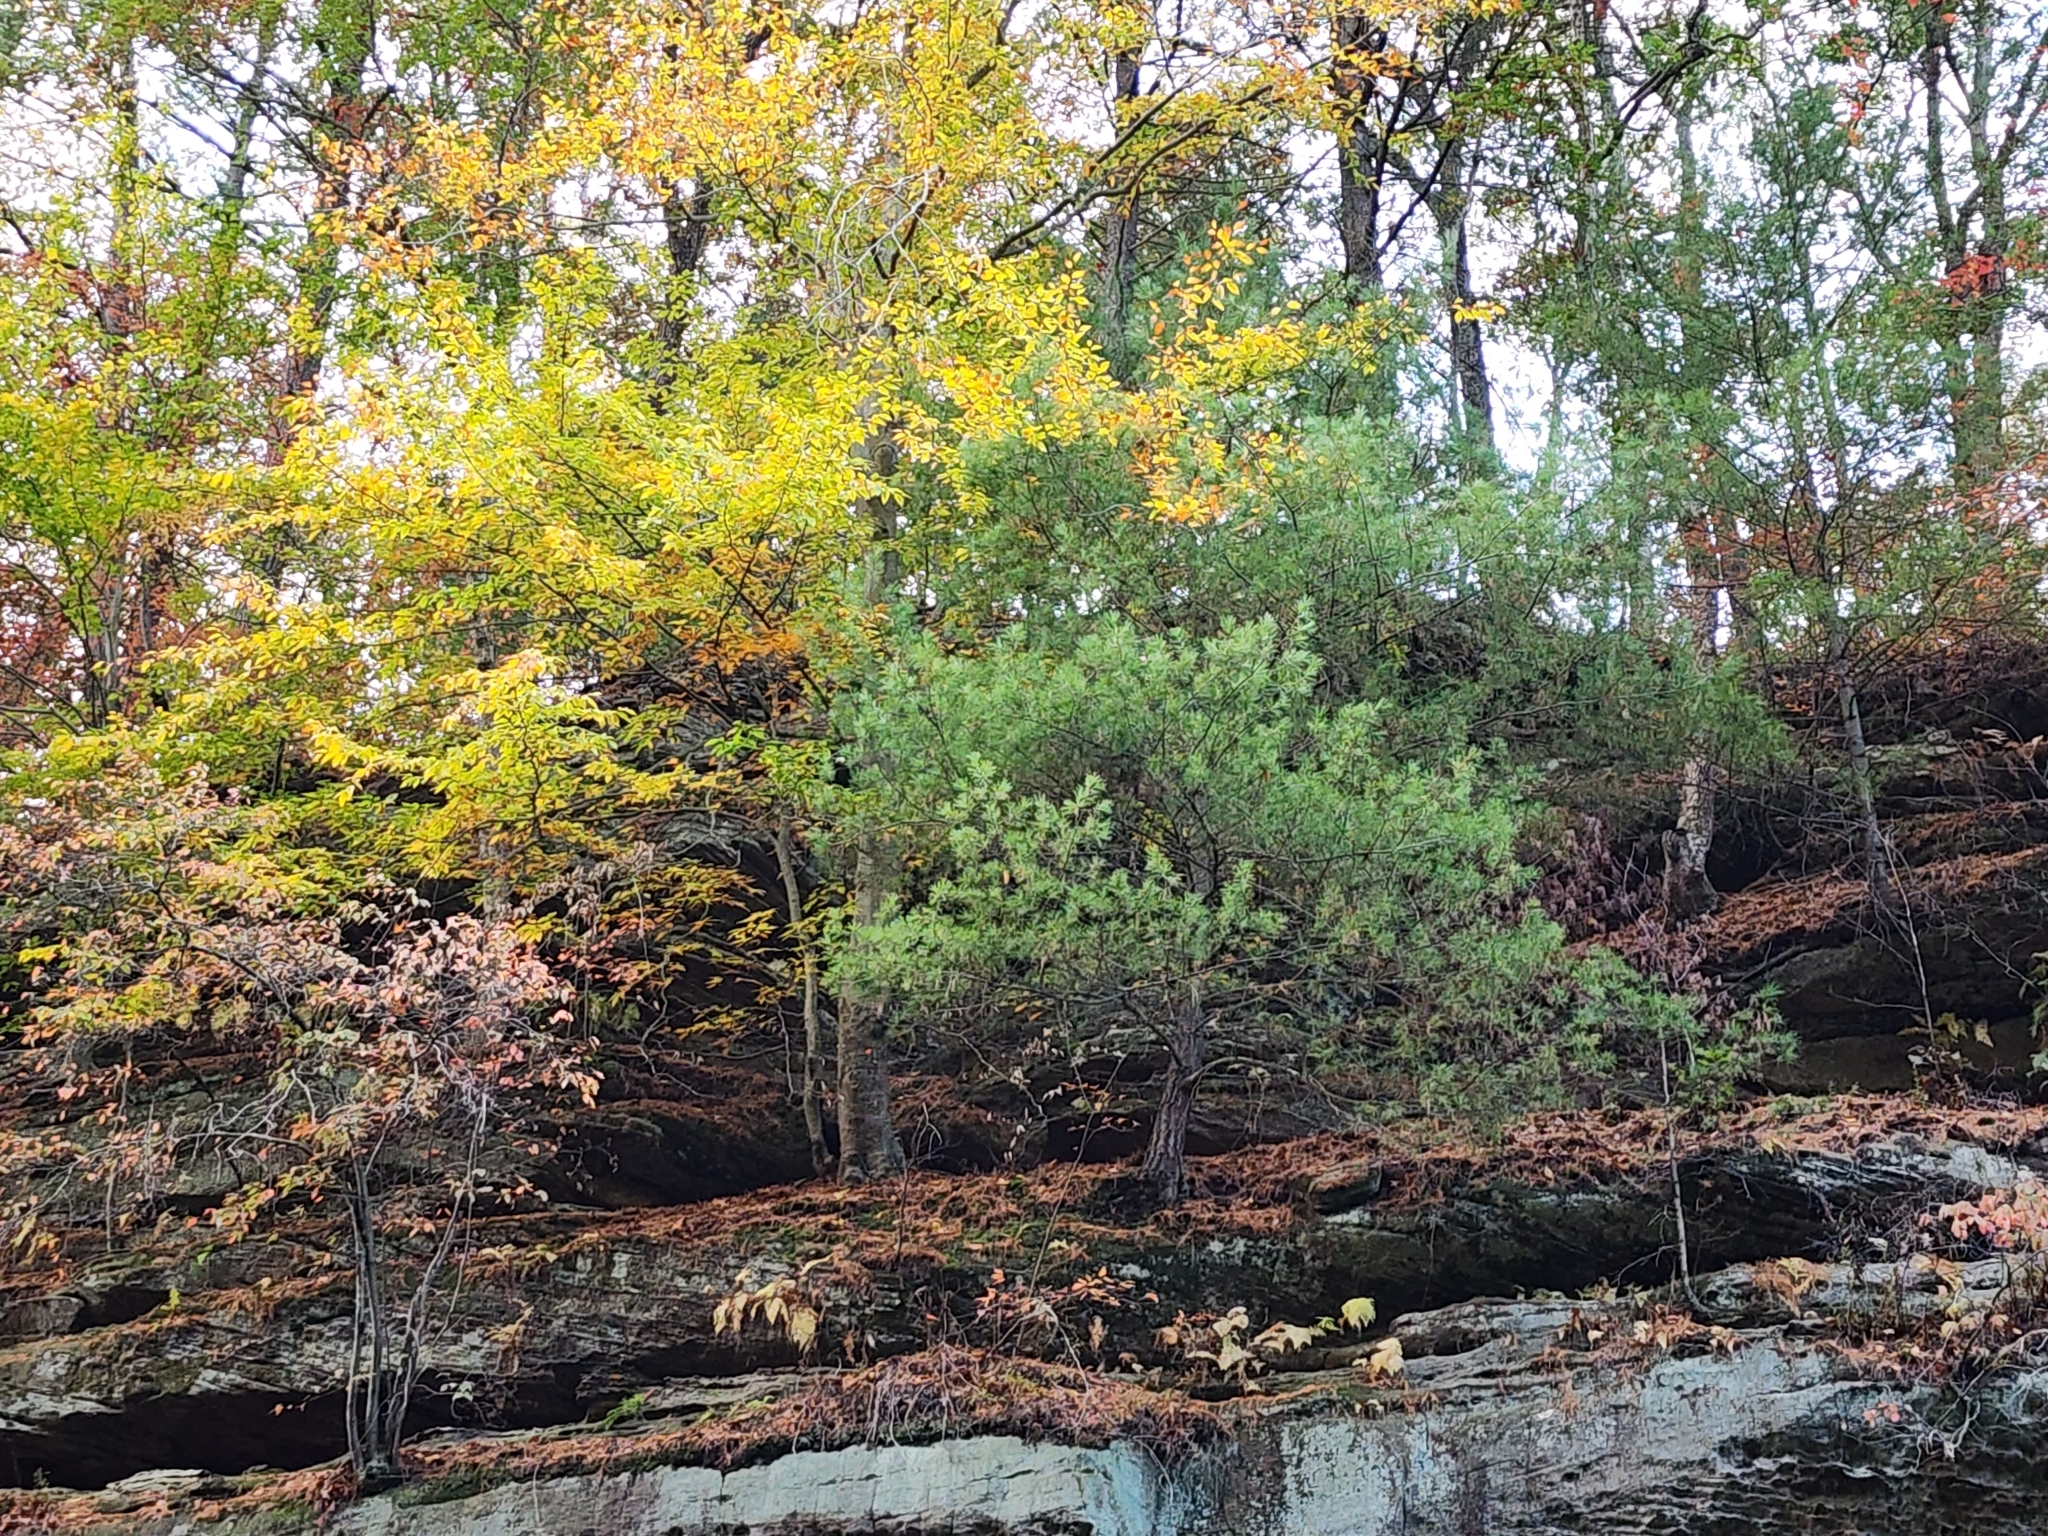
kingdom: Plantae
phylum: Tracheophyta
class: Pinopsida
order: Pinales
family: Pinaceae
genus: Pinus
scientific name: Pinus strobus
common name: Weymouth pine
